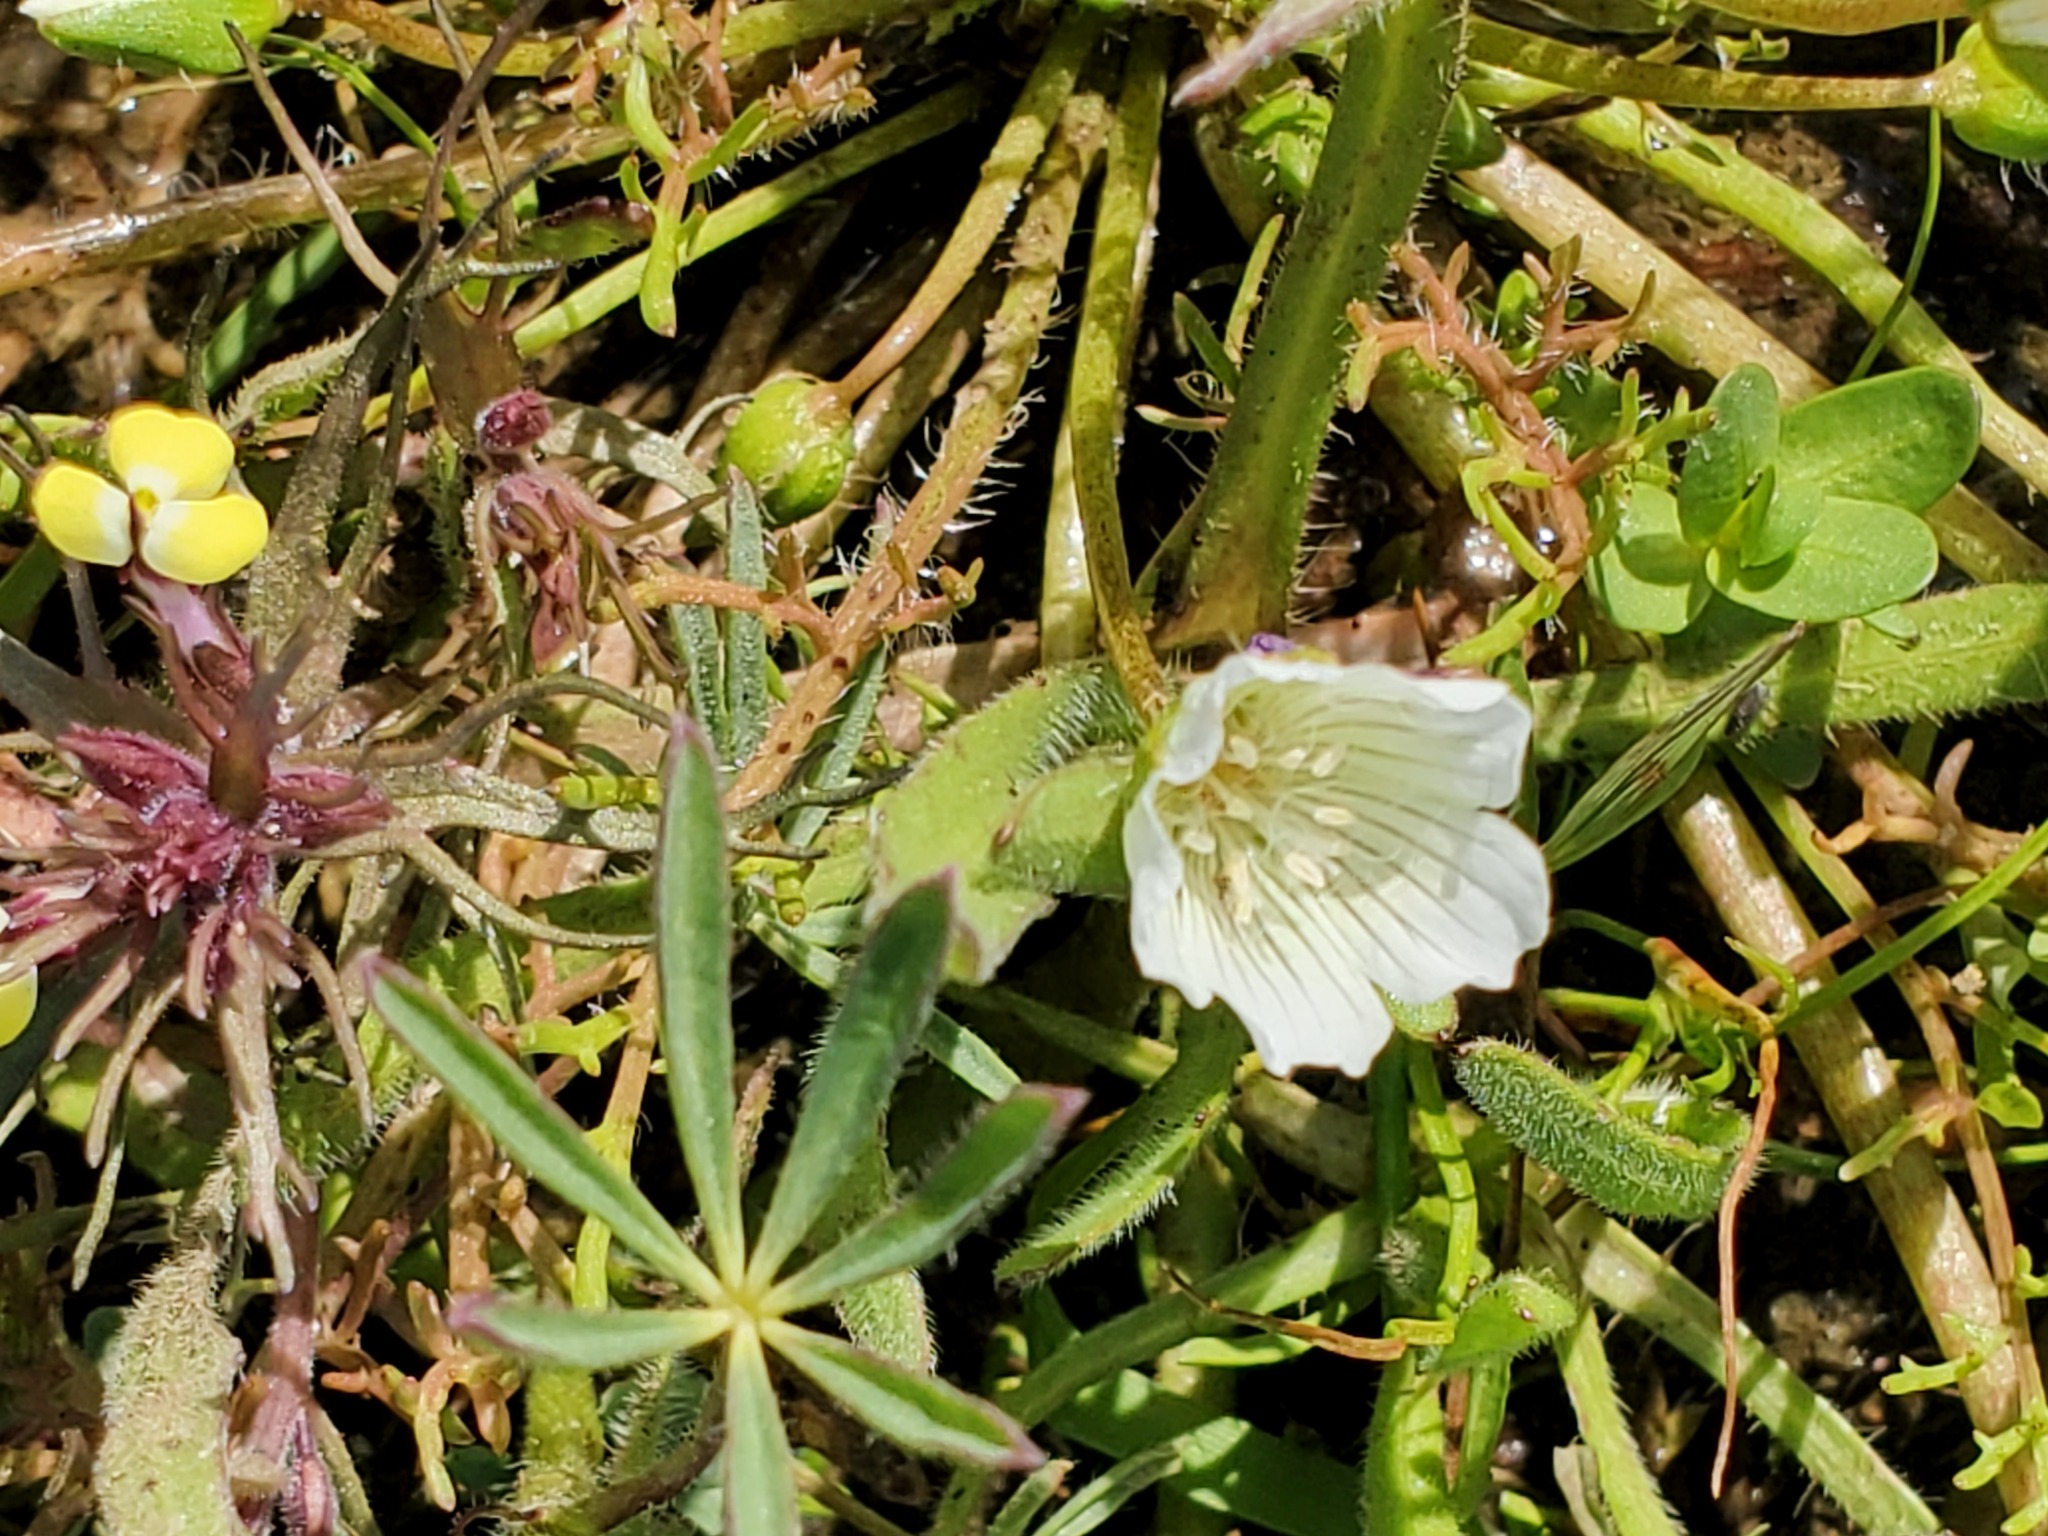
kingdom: Plantae
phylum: Tracheophyta
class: Magnoliopsida
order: Brassicales
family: Limnanthaceae
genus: Limnanthes
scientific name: Limnanthes douglasii
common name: Meadow-foam
